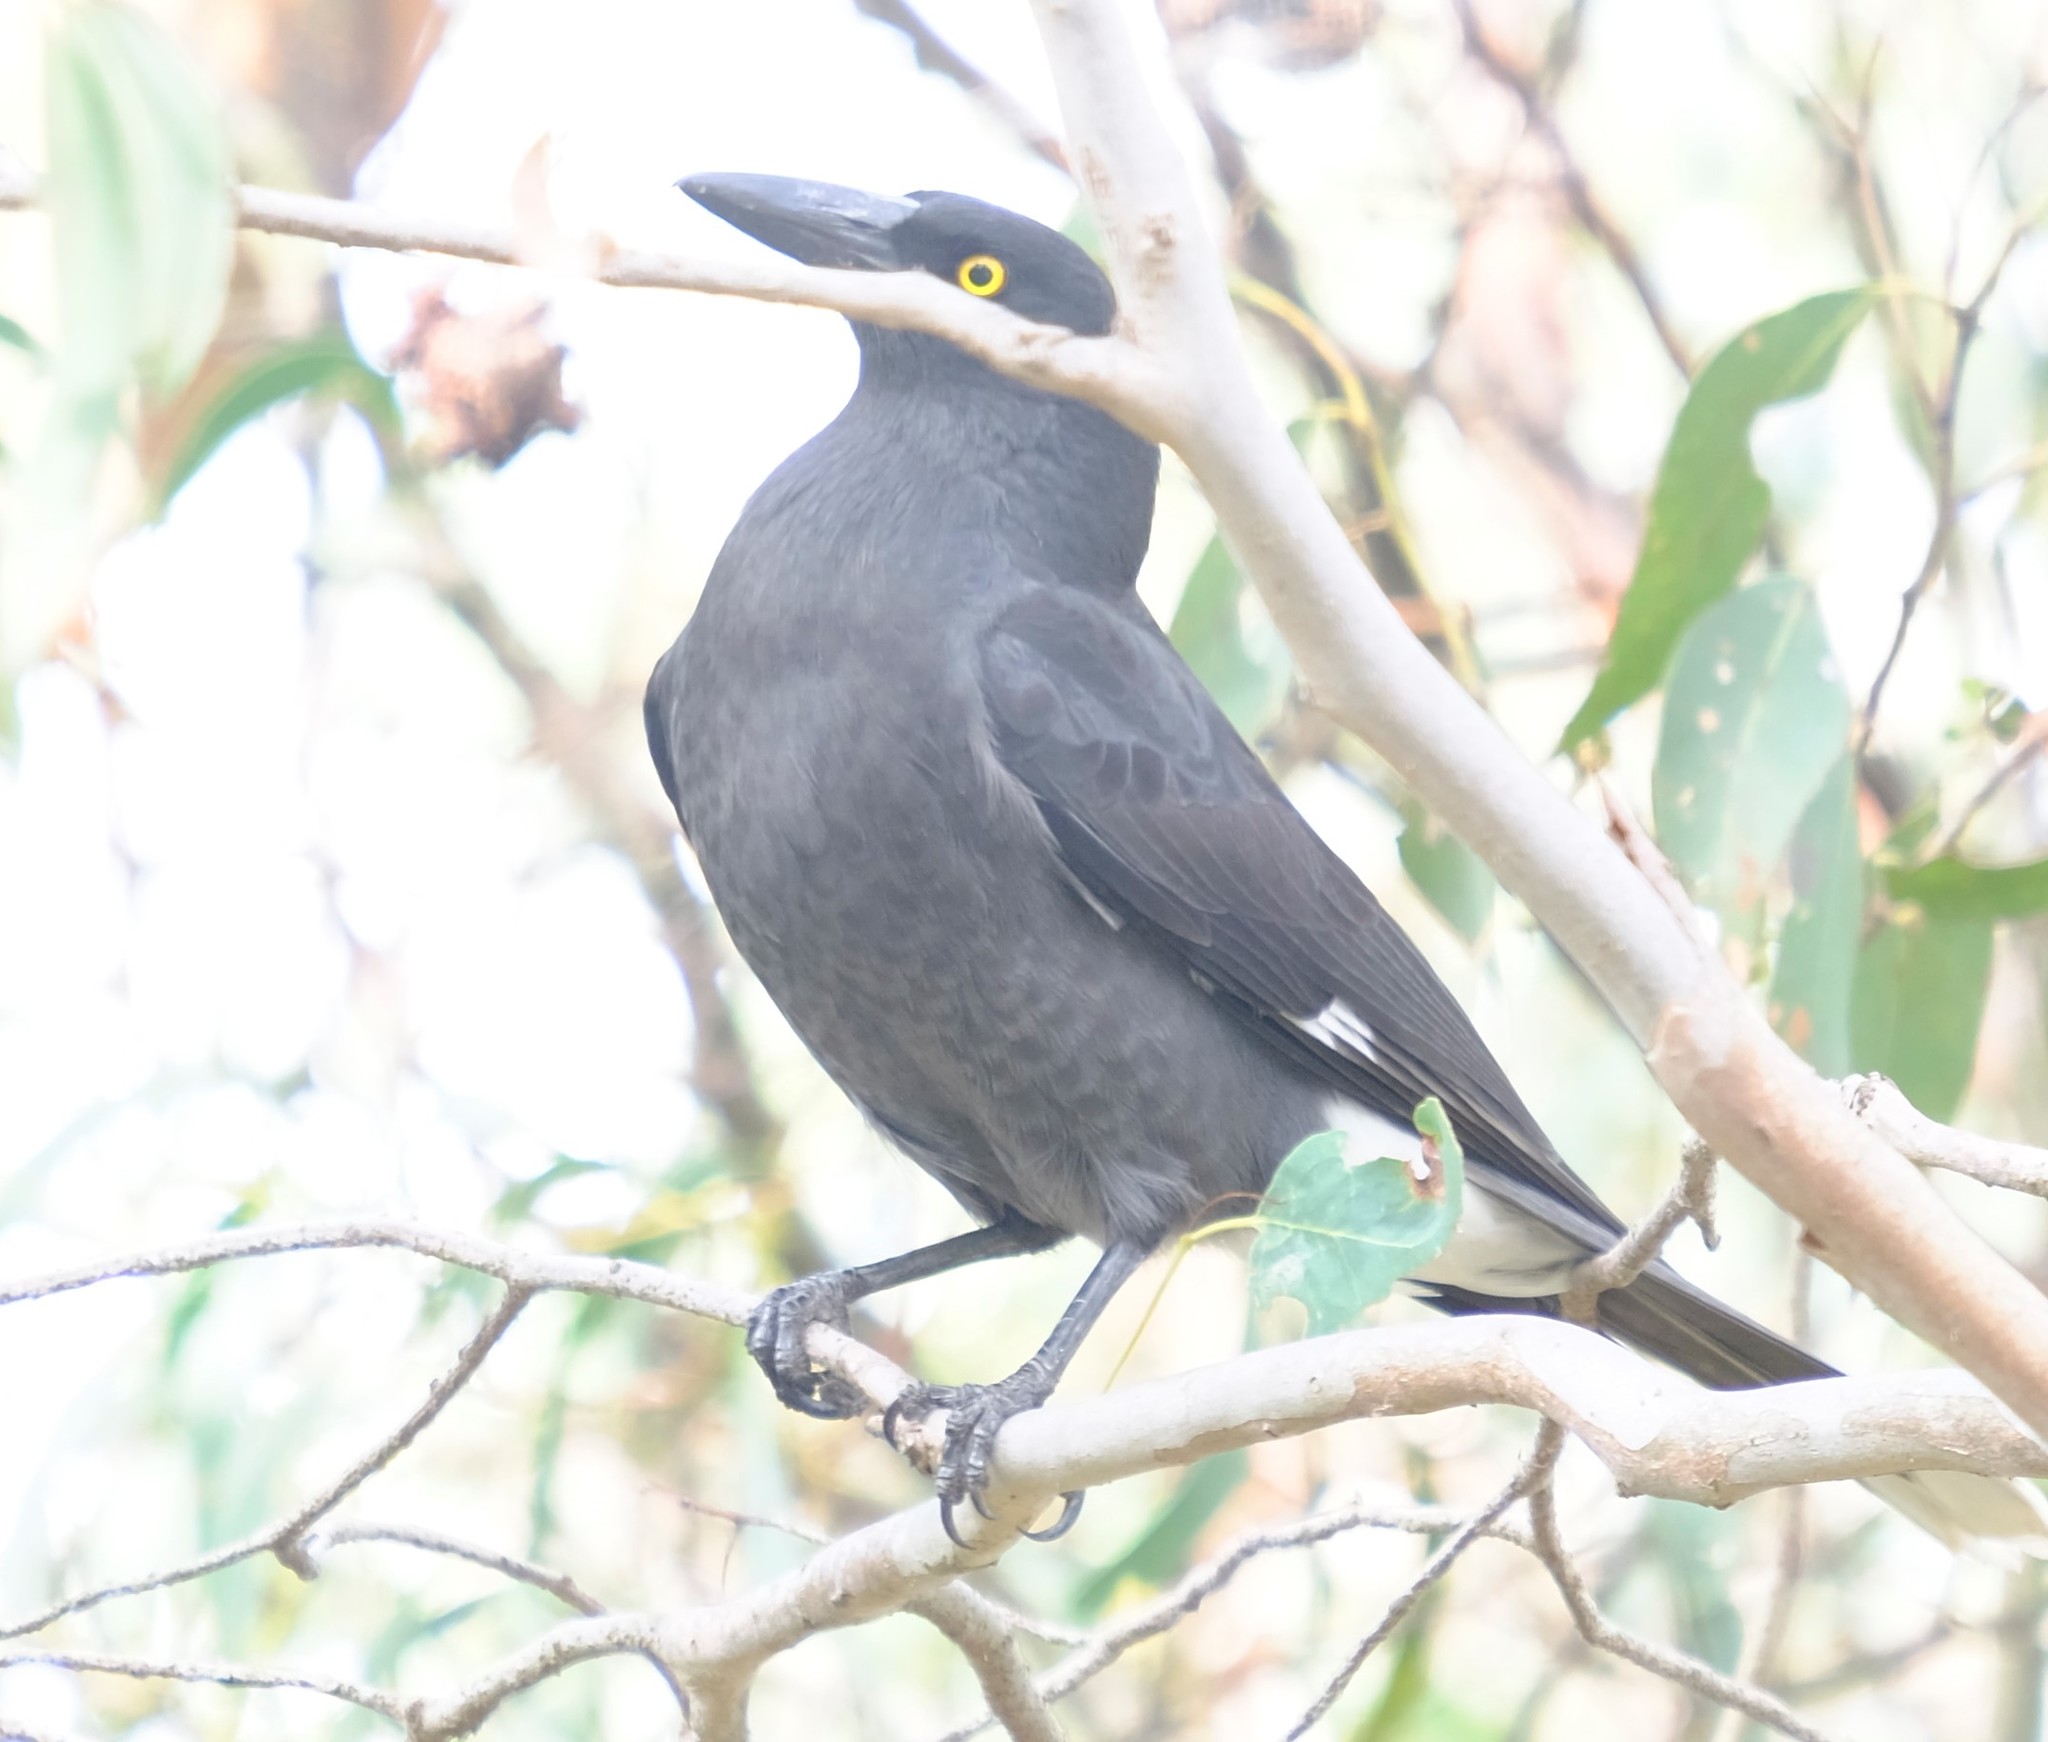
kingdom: Animalia
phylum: Chordata
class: Aves
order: Passeriformes
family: Cracticidae
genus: Strepera
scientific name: Strepera graculina
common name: Pied currawong
